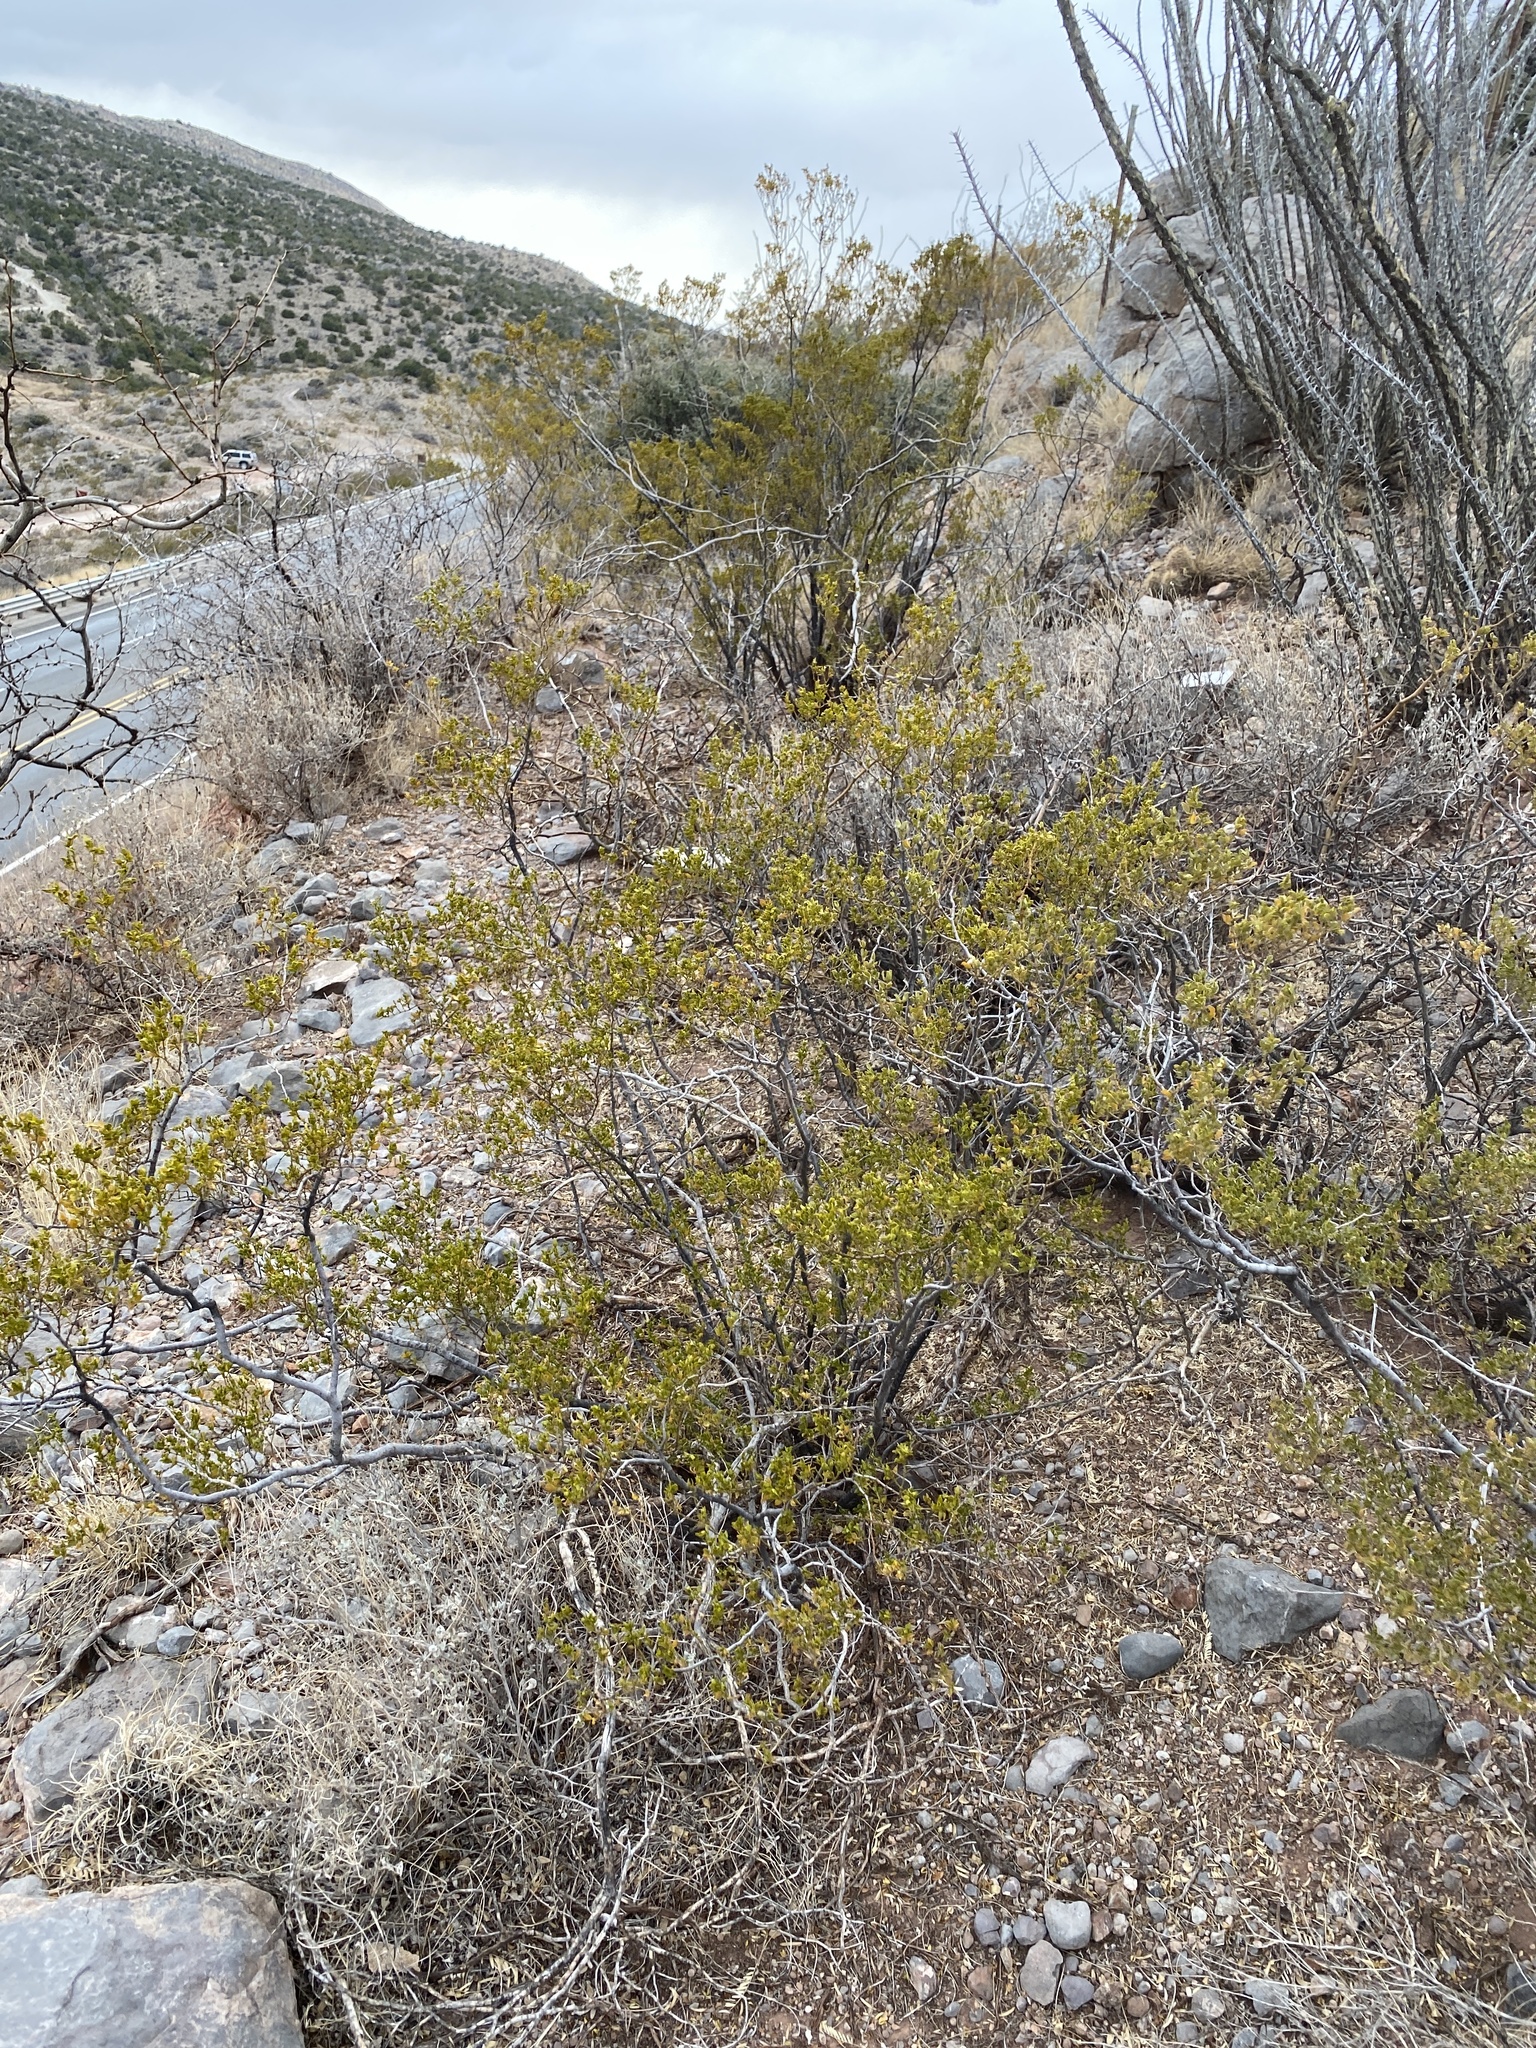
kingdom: Plantae
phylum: Tracheophyta
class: Magnoliopsida
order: Zygophyllales
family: Zygophyllaceae
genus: Larrea
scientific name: Larrea tridentata
